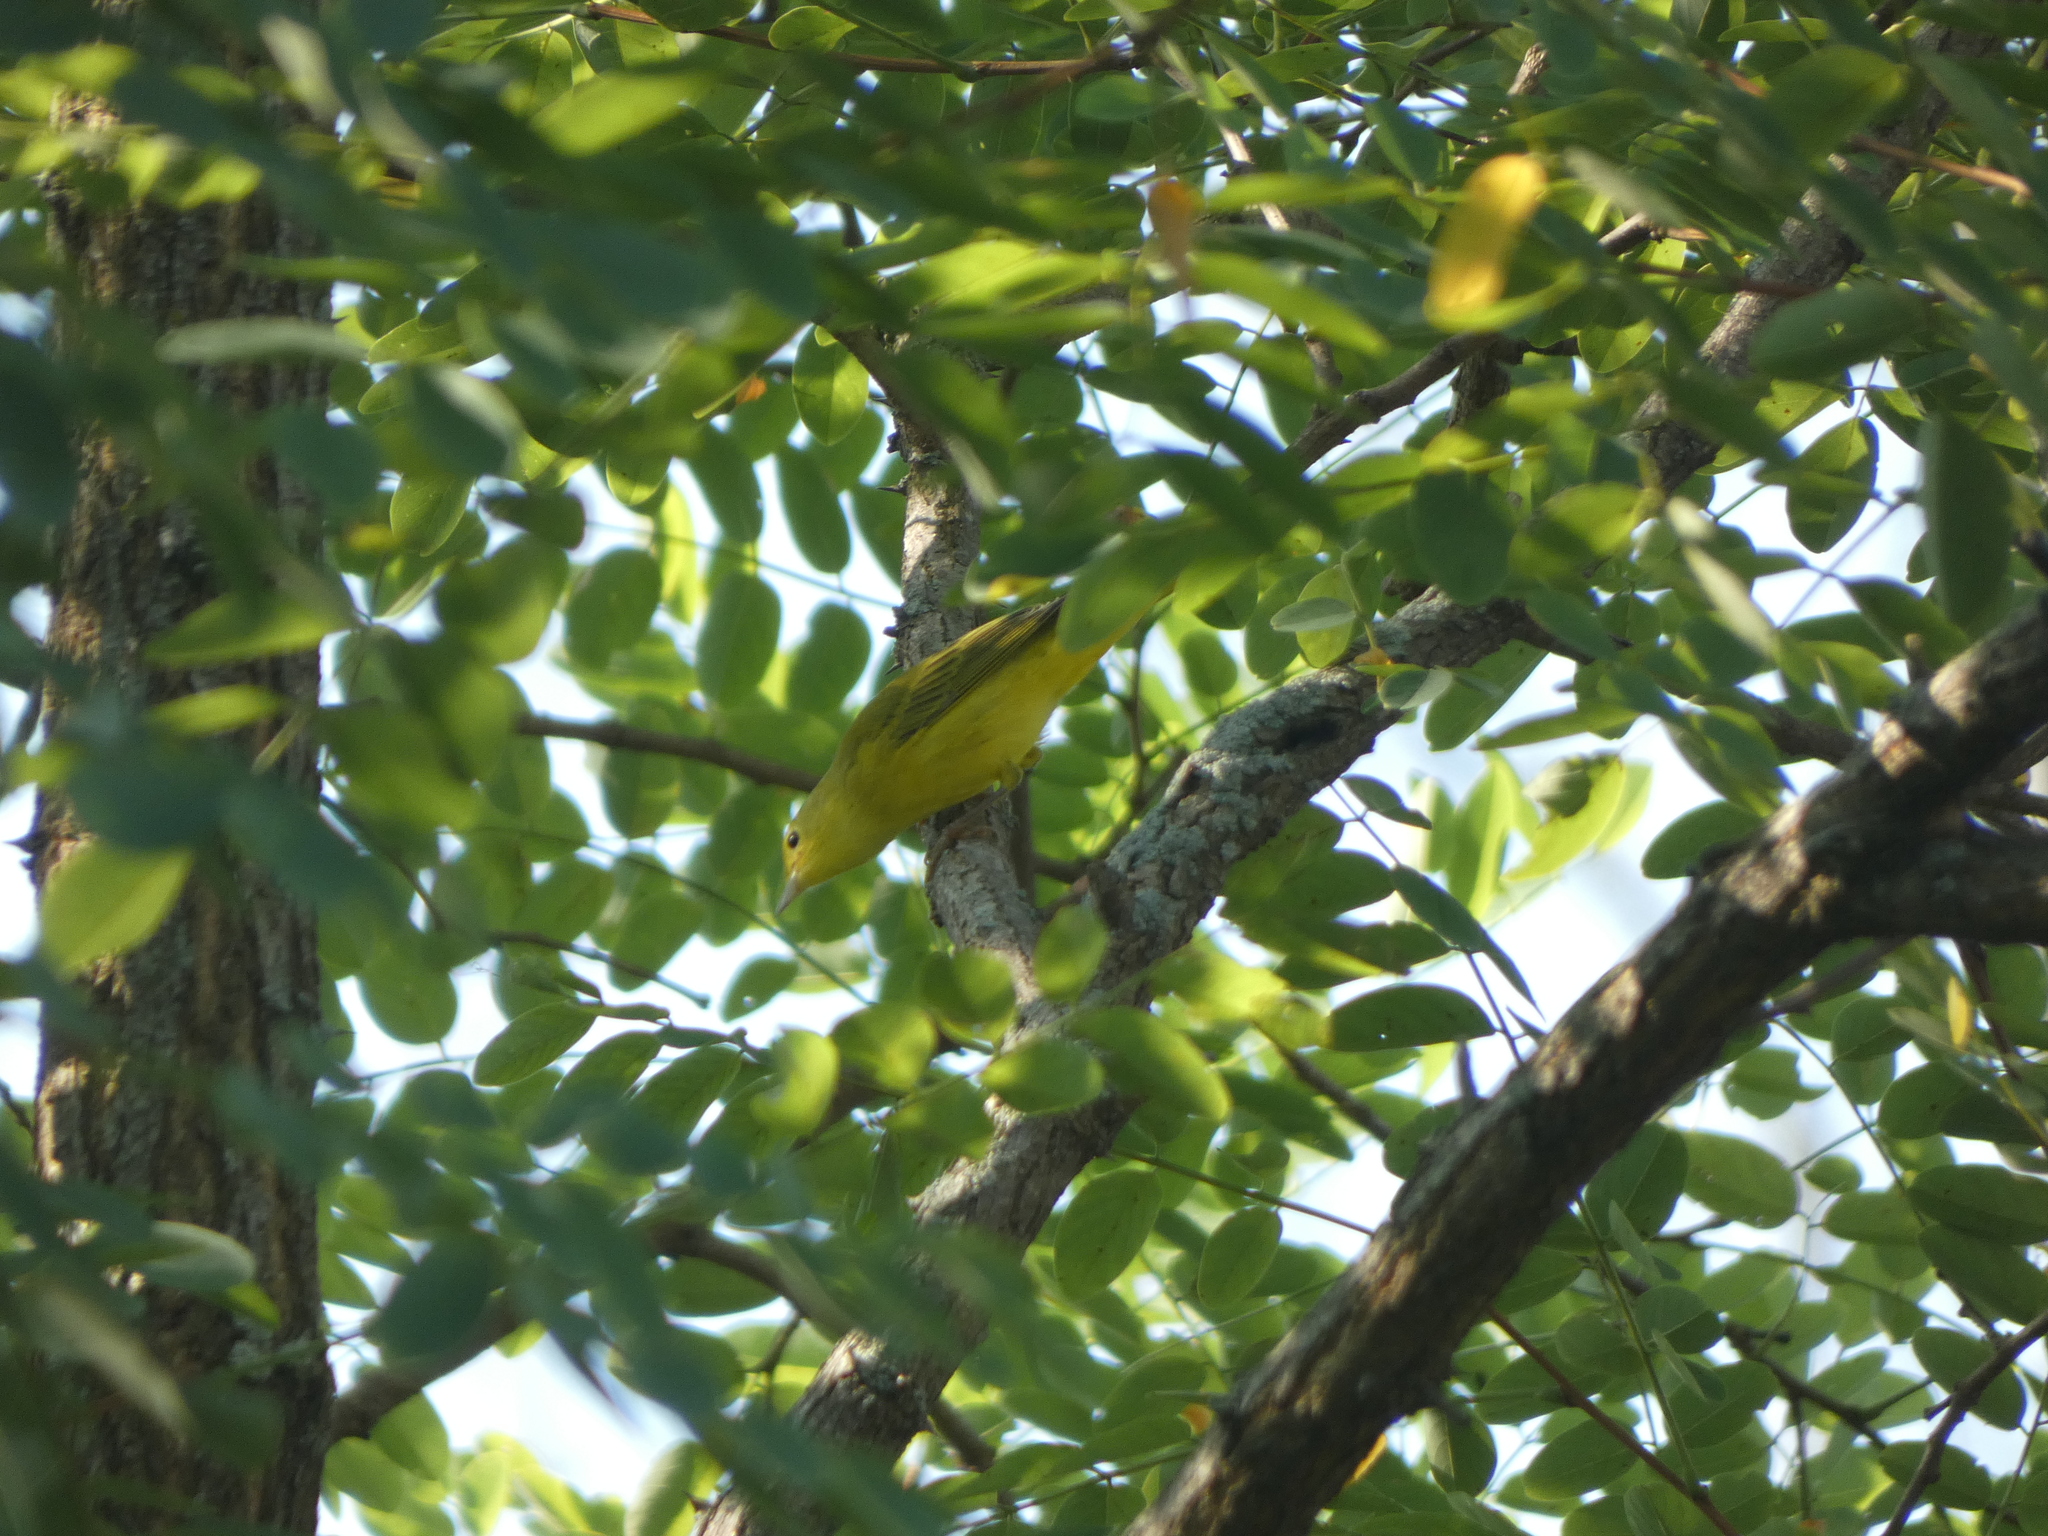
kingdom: Animalia
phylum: Chordata
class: Aves
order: Passeriformes
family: Parulidae
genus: Setophaga
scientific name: Setophaga petechia
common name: Yellow warbler
